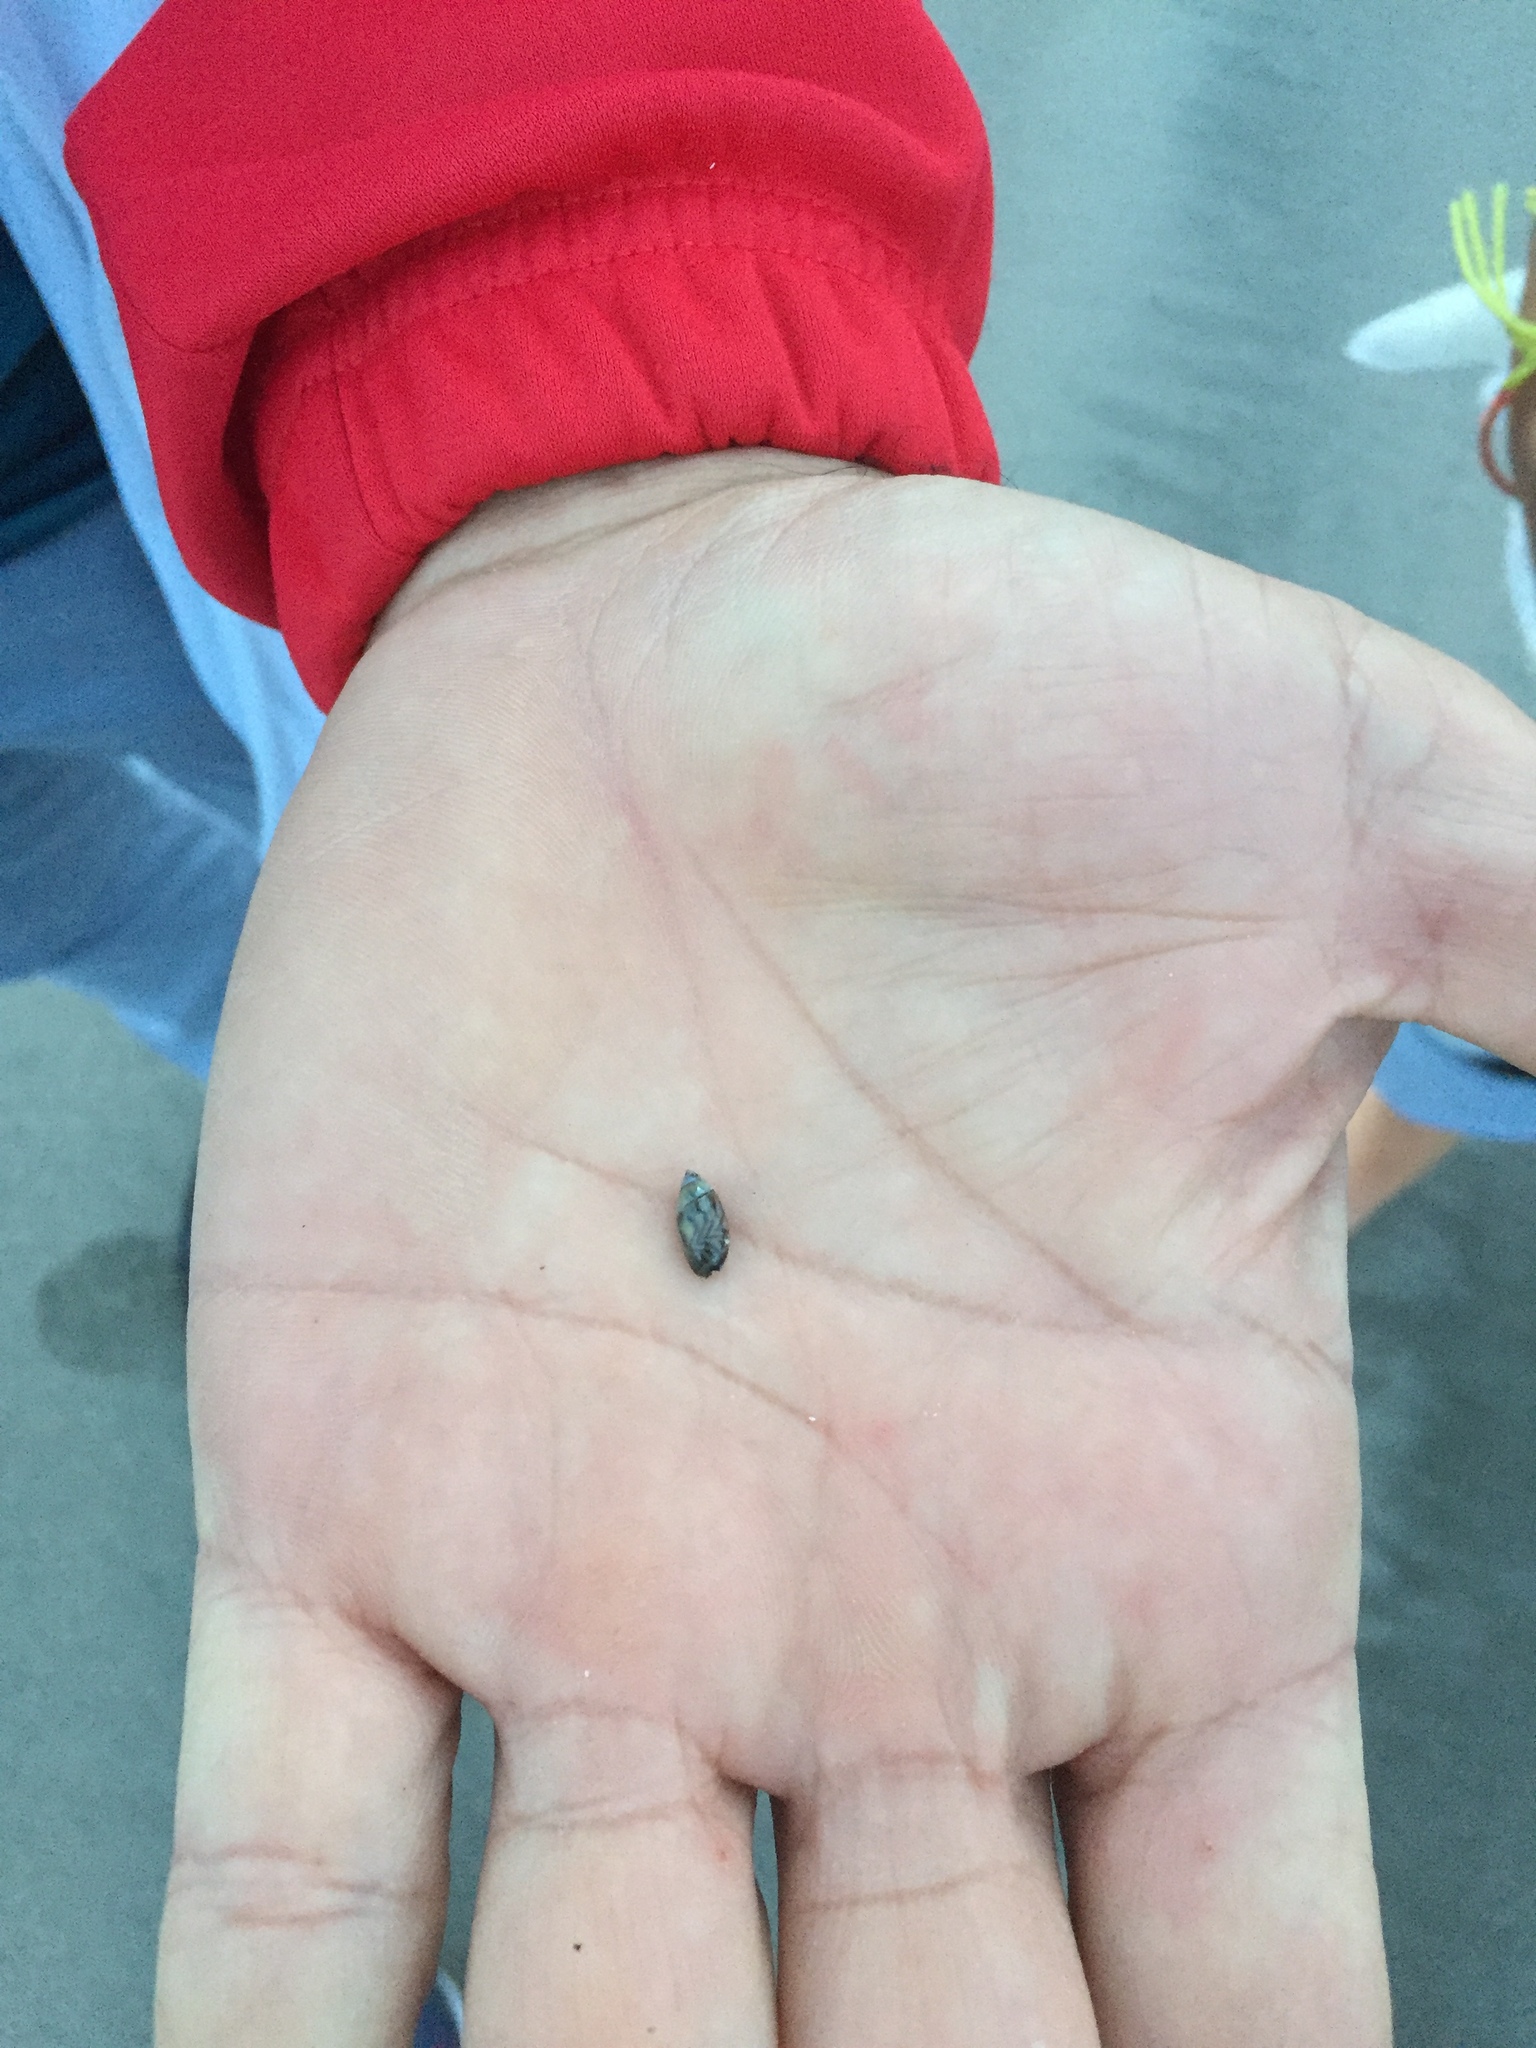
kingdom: Animalia
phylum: Mollusca
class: Gastropoda
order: Neogastropoda
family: Olividae
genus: Olivella
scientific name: Olivella minuta
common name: Minute dwarf olive
